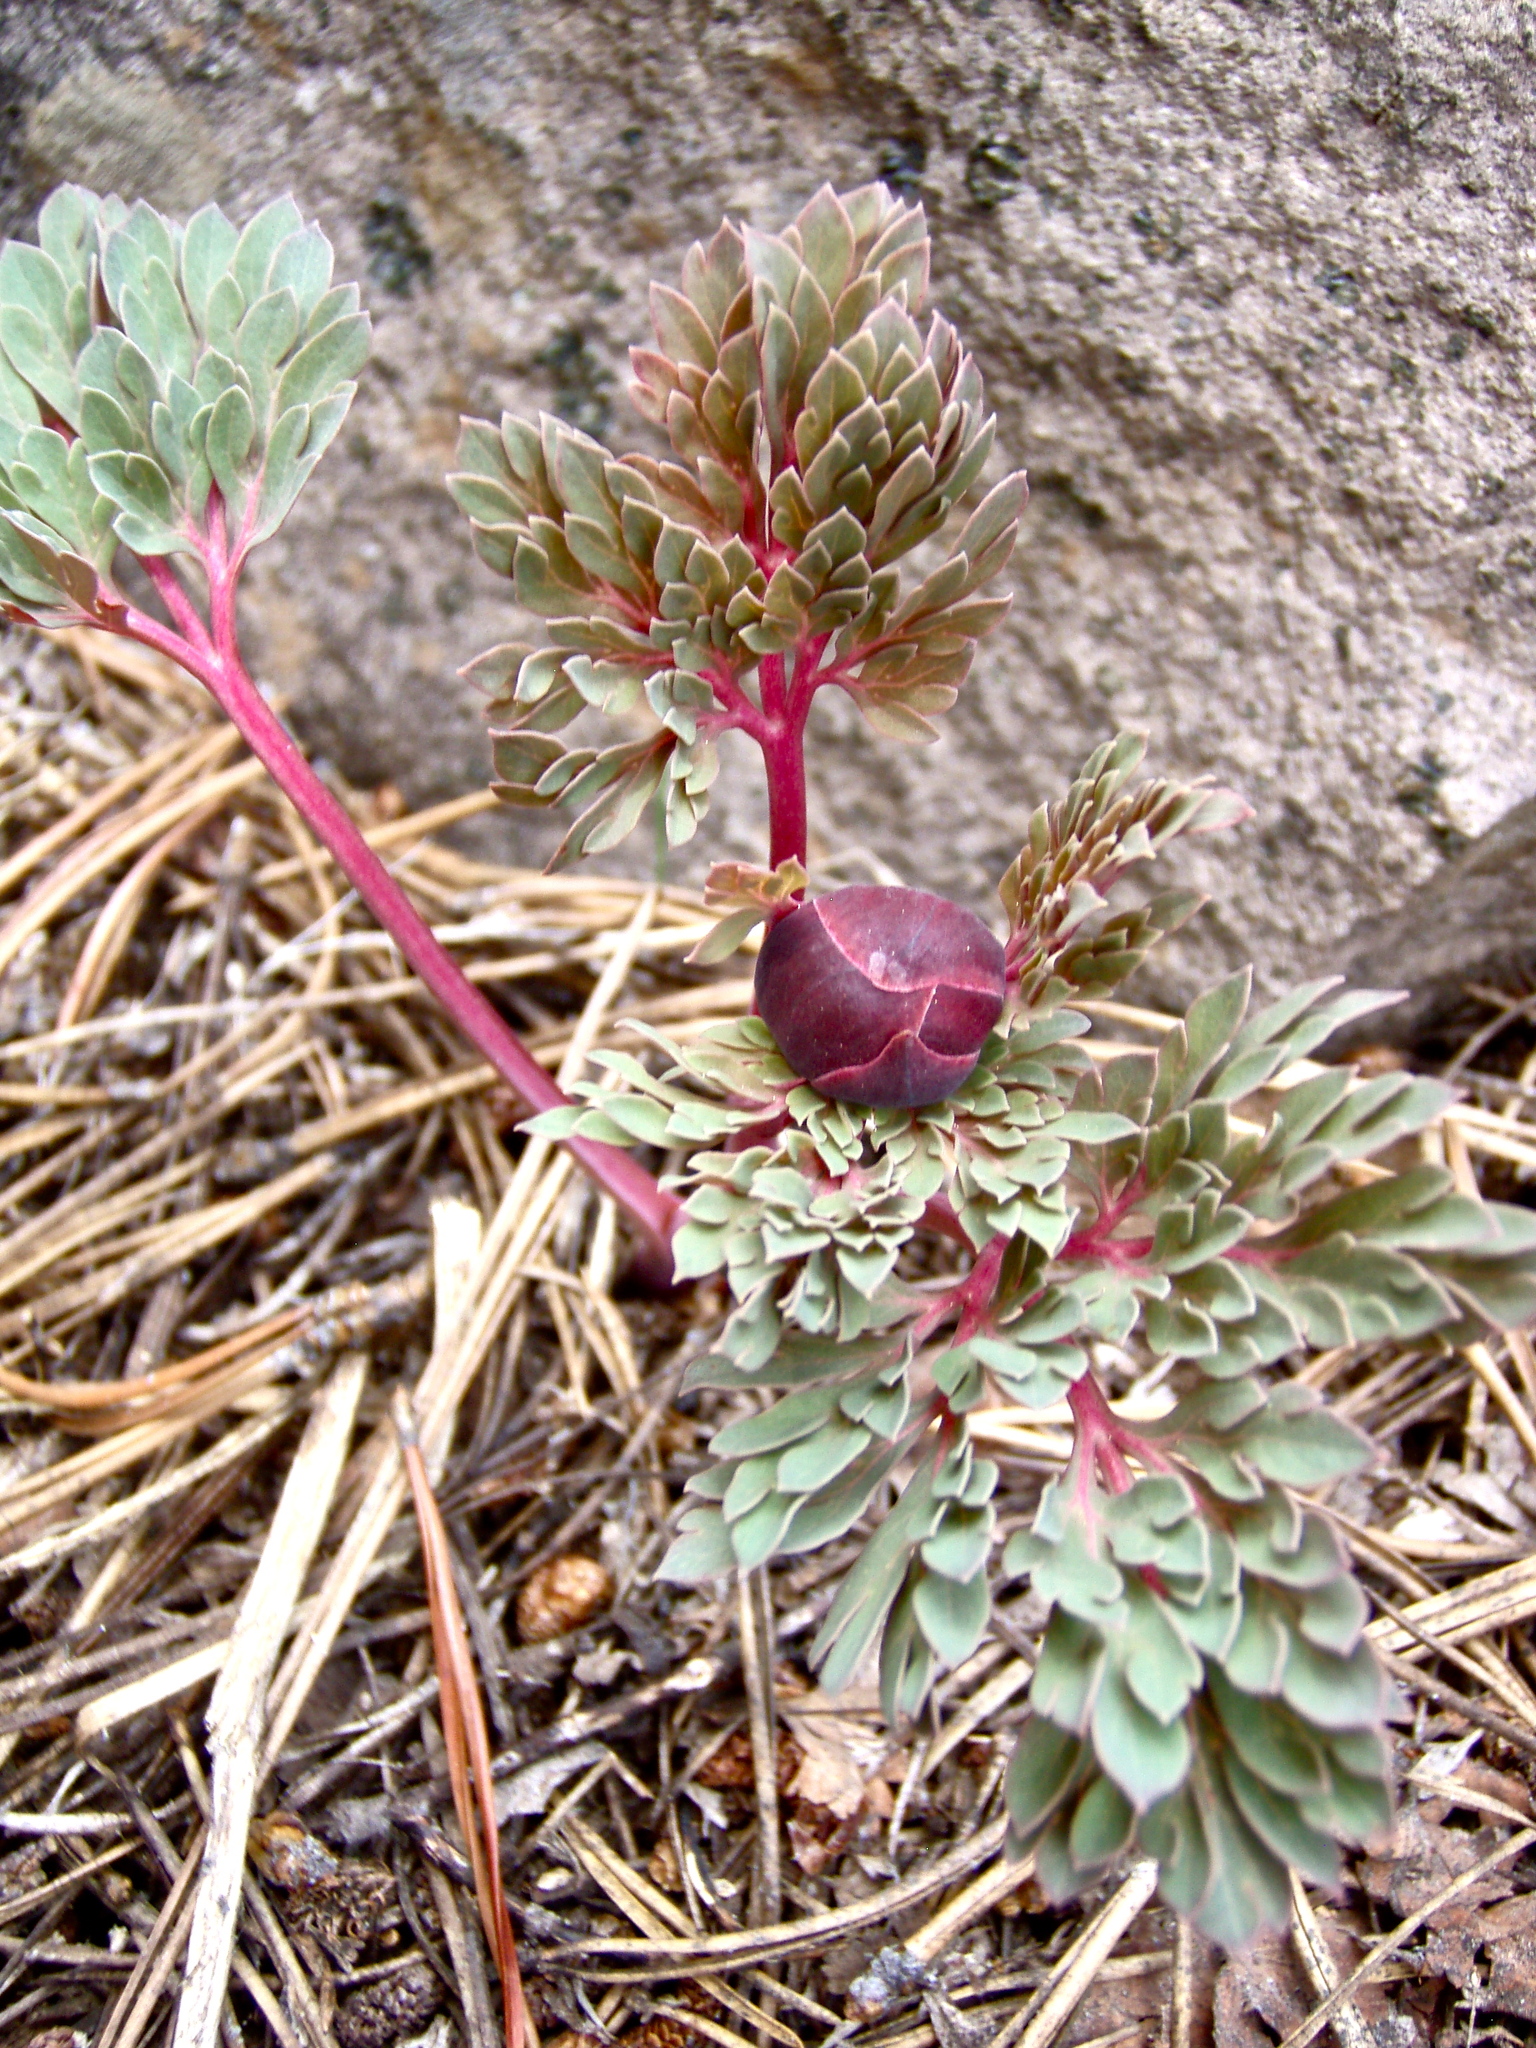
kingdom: Plantae
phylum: Tracheophyta
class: Magnoliopsida
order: Saxifragales
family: Paeoniaceae
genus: Paeonia
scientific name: Paeonia brownii
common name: Brown's peony
